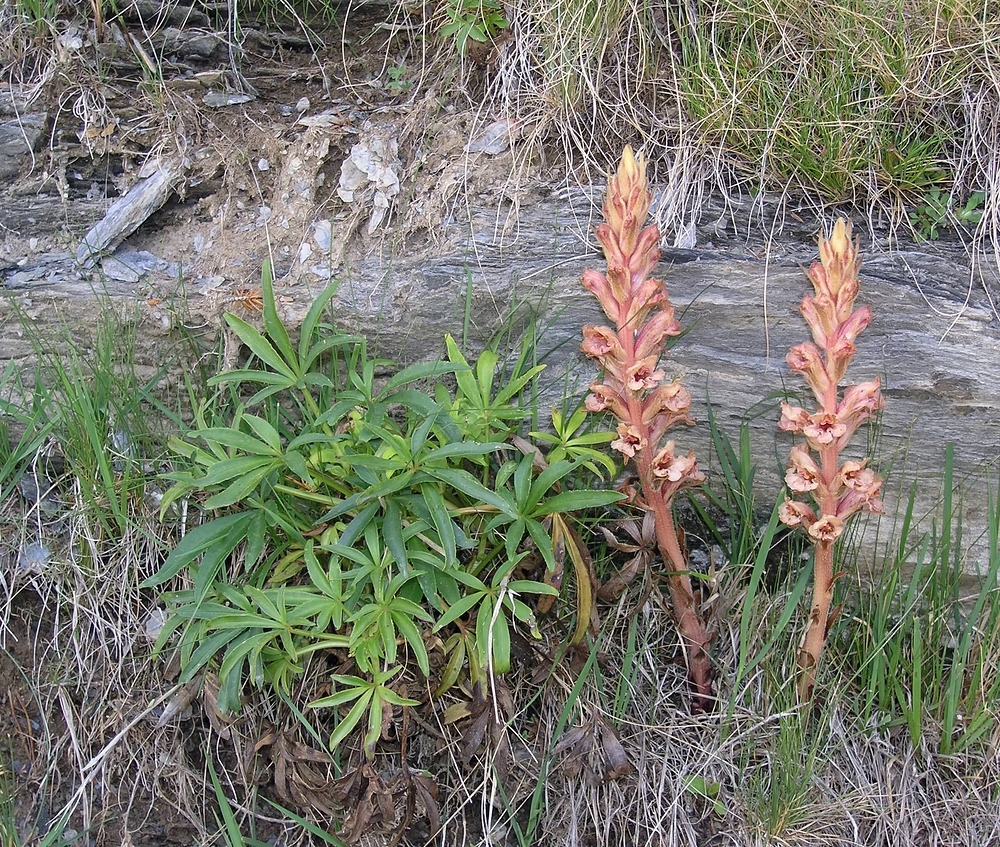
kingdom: Plantae
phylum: Tracheophyta
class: Magnoliopsida
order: Lamiales
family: Orobanchaceae
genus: Orobanche
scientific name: Orobanche haenseleri
